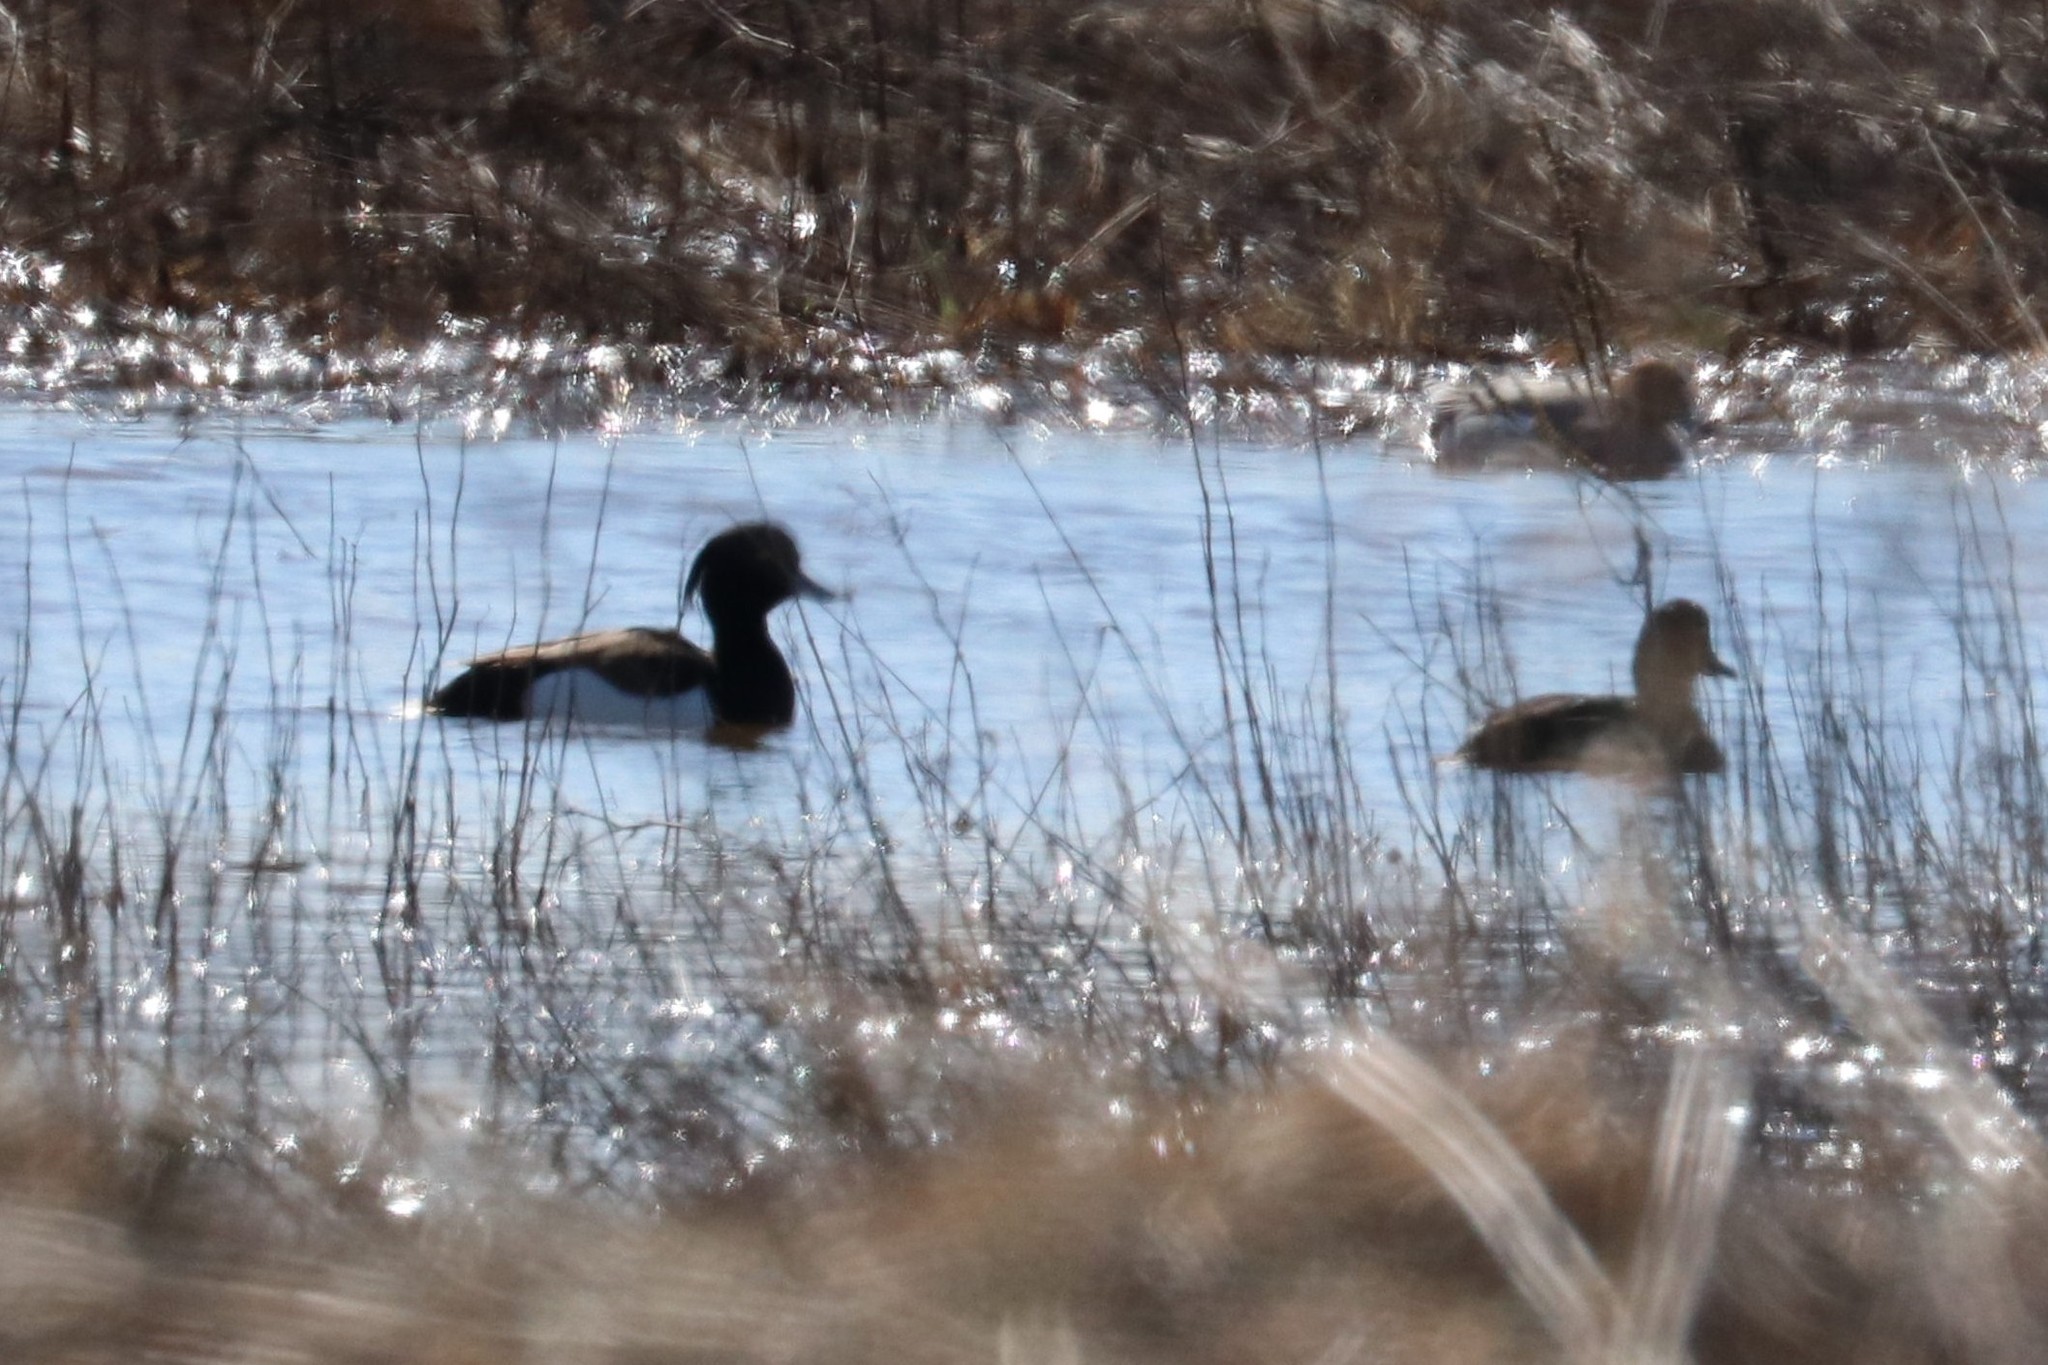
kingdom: Animalia
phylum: Chordata
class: Aves
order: Anseriformes
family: Anatidae
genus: Aythya
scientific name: Aythya fuligula
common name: Tufted duck
